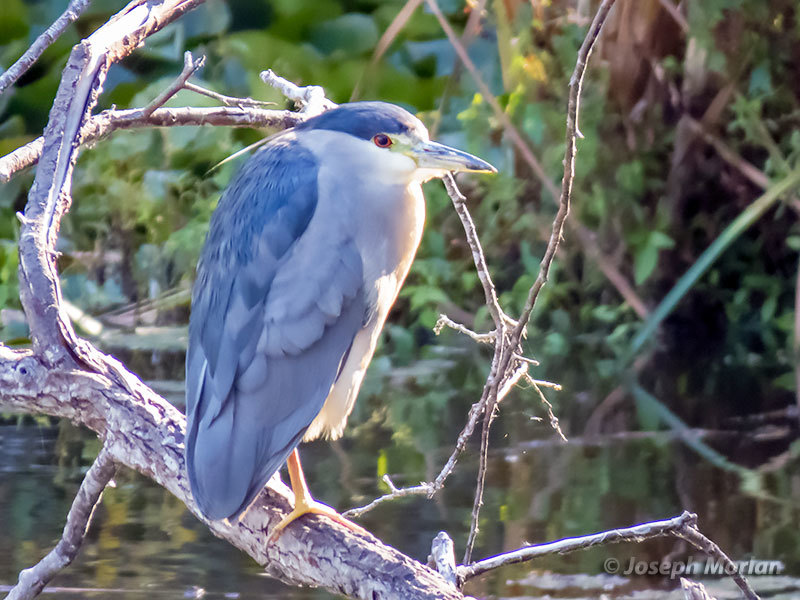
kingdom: Animalia
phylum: Chordata
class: Aves
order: Pelecaniformes
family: Ardeidae
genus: Nycticorax
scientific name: Nycticorax nycticorax
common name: Black-crowned night heron
